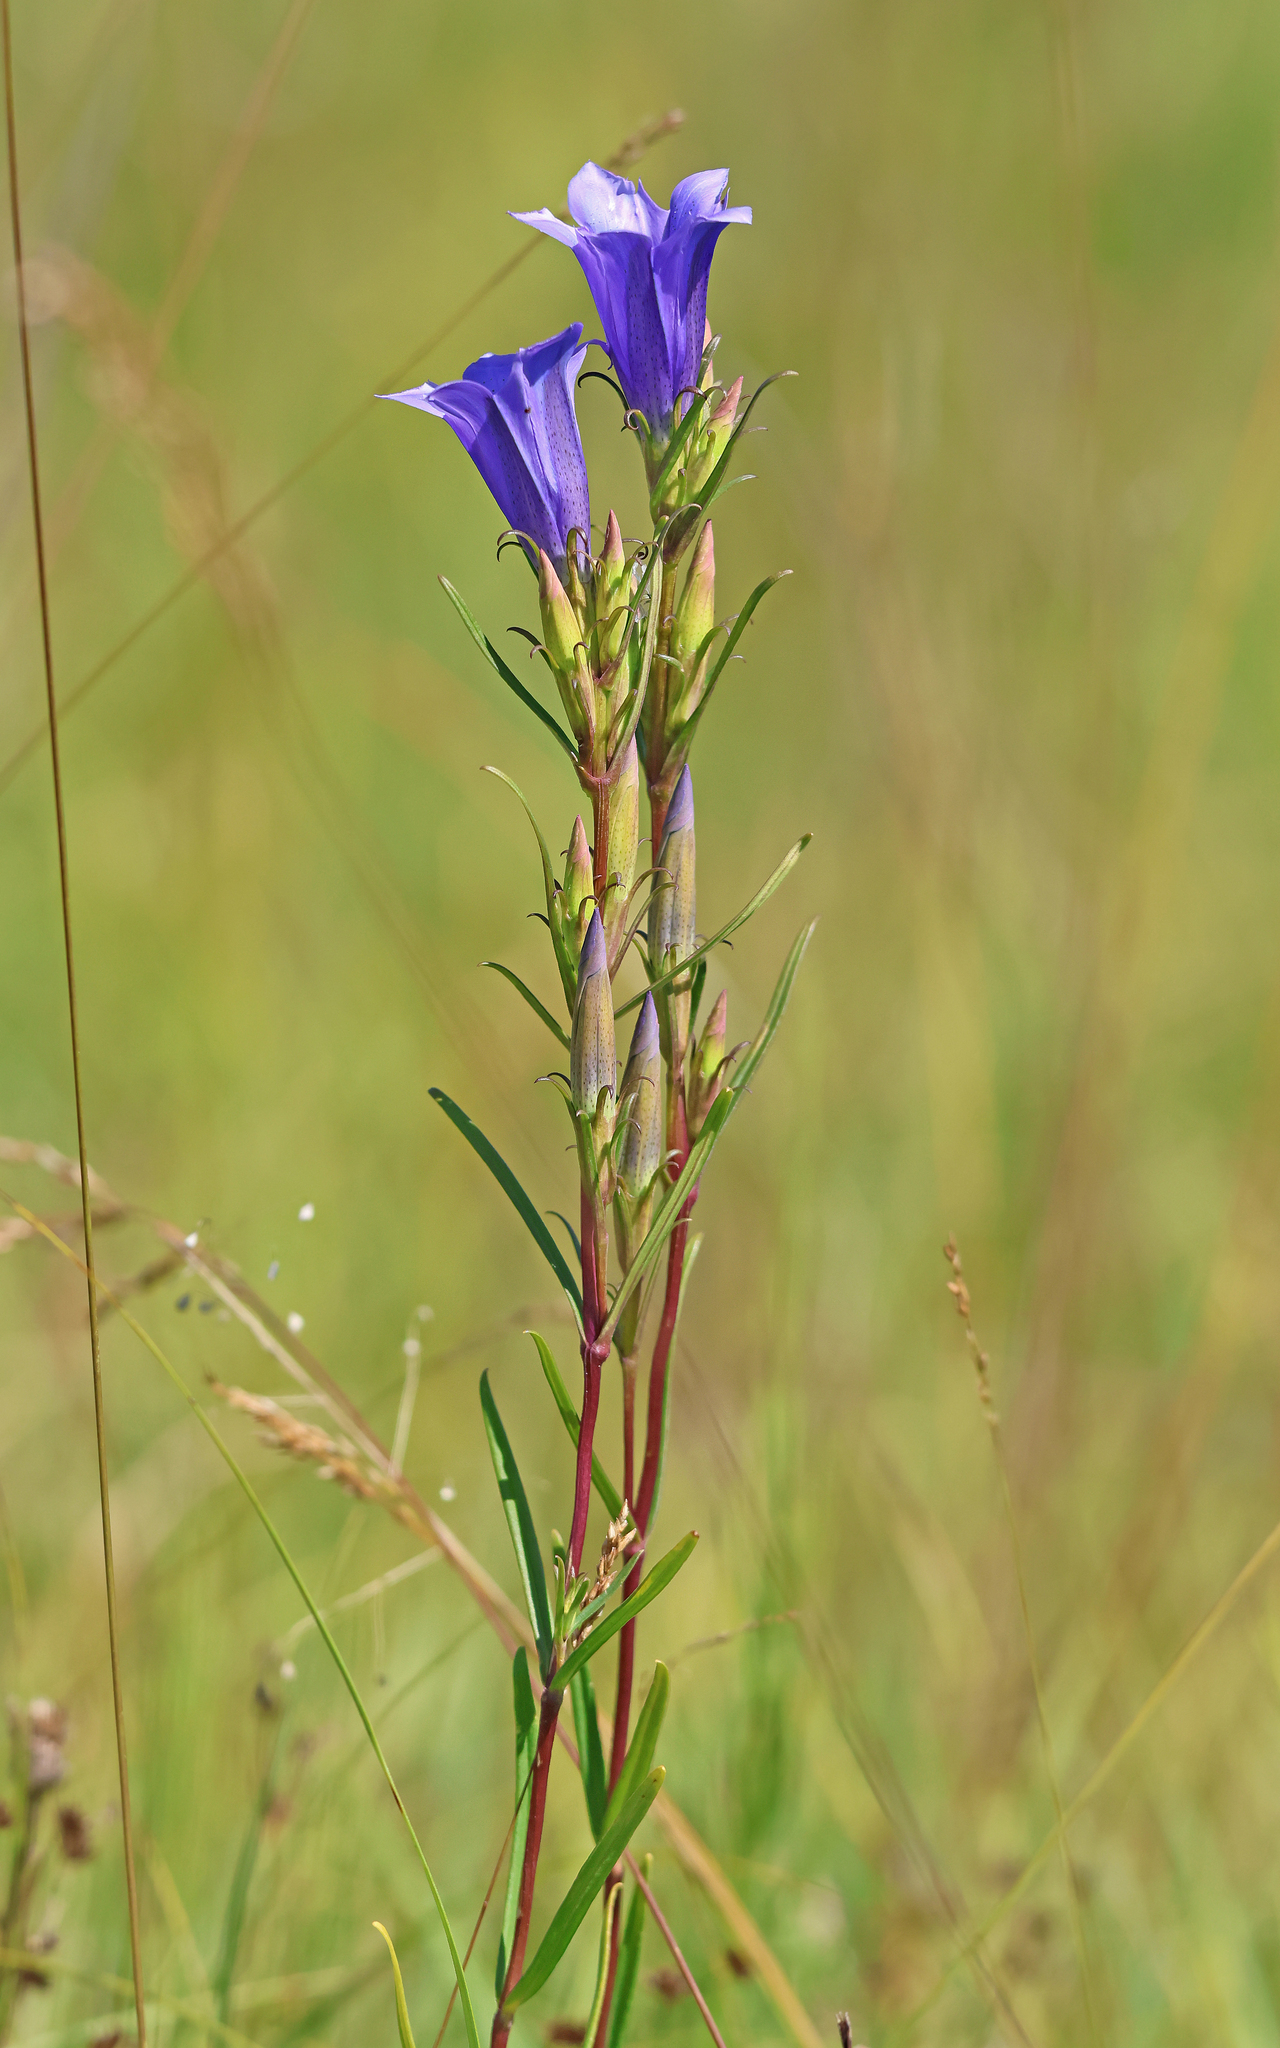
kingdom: Plantae
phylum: Tracheophyta
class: Magnoliopsida
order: Gentianales
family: Gentianaceae
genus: Gentiana
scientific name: Gentiana pneumonanthe
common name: Marsh gentian
